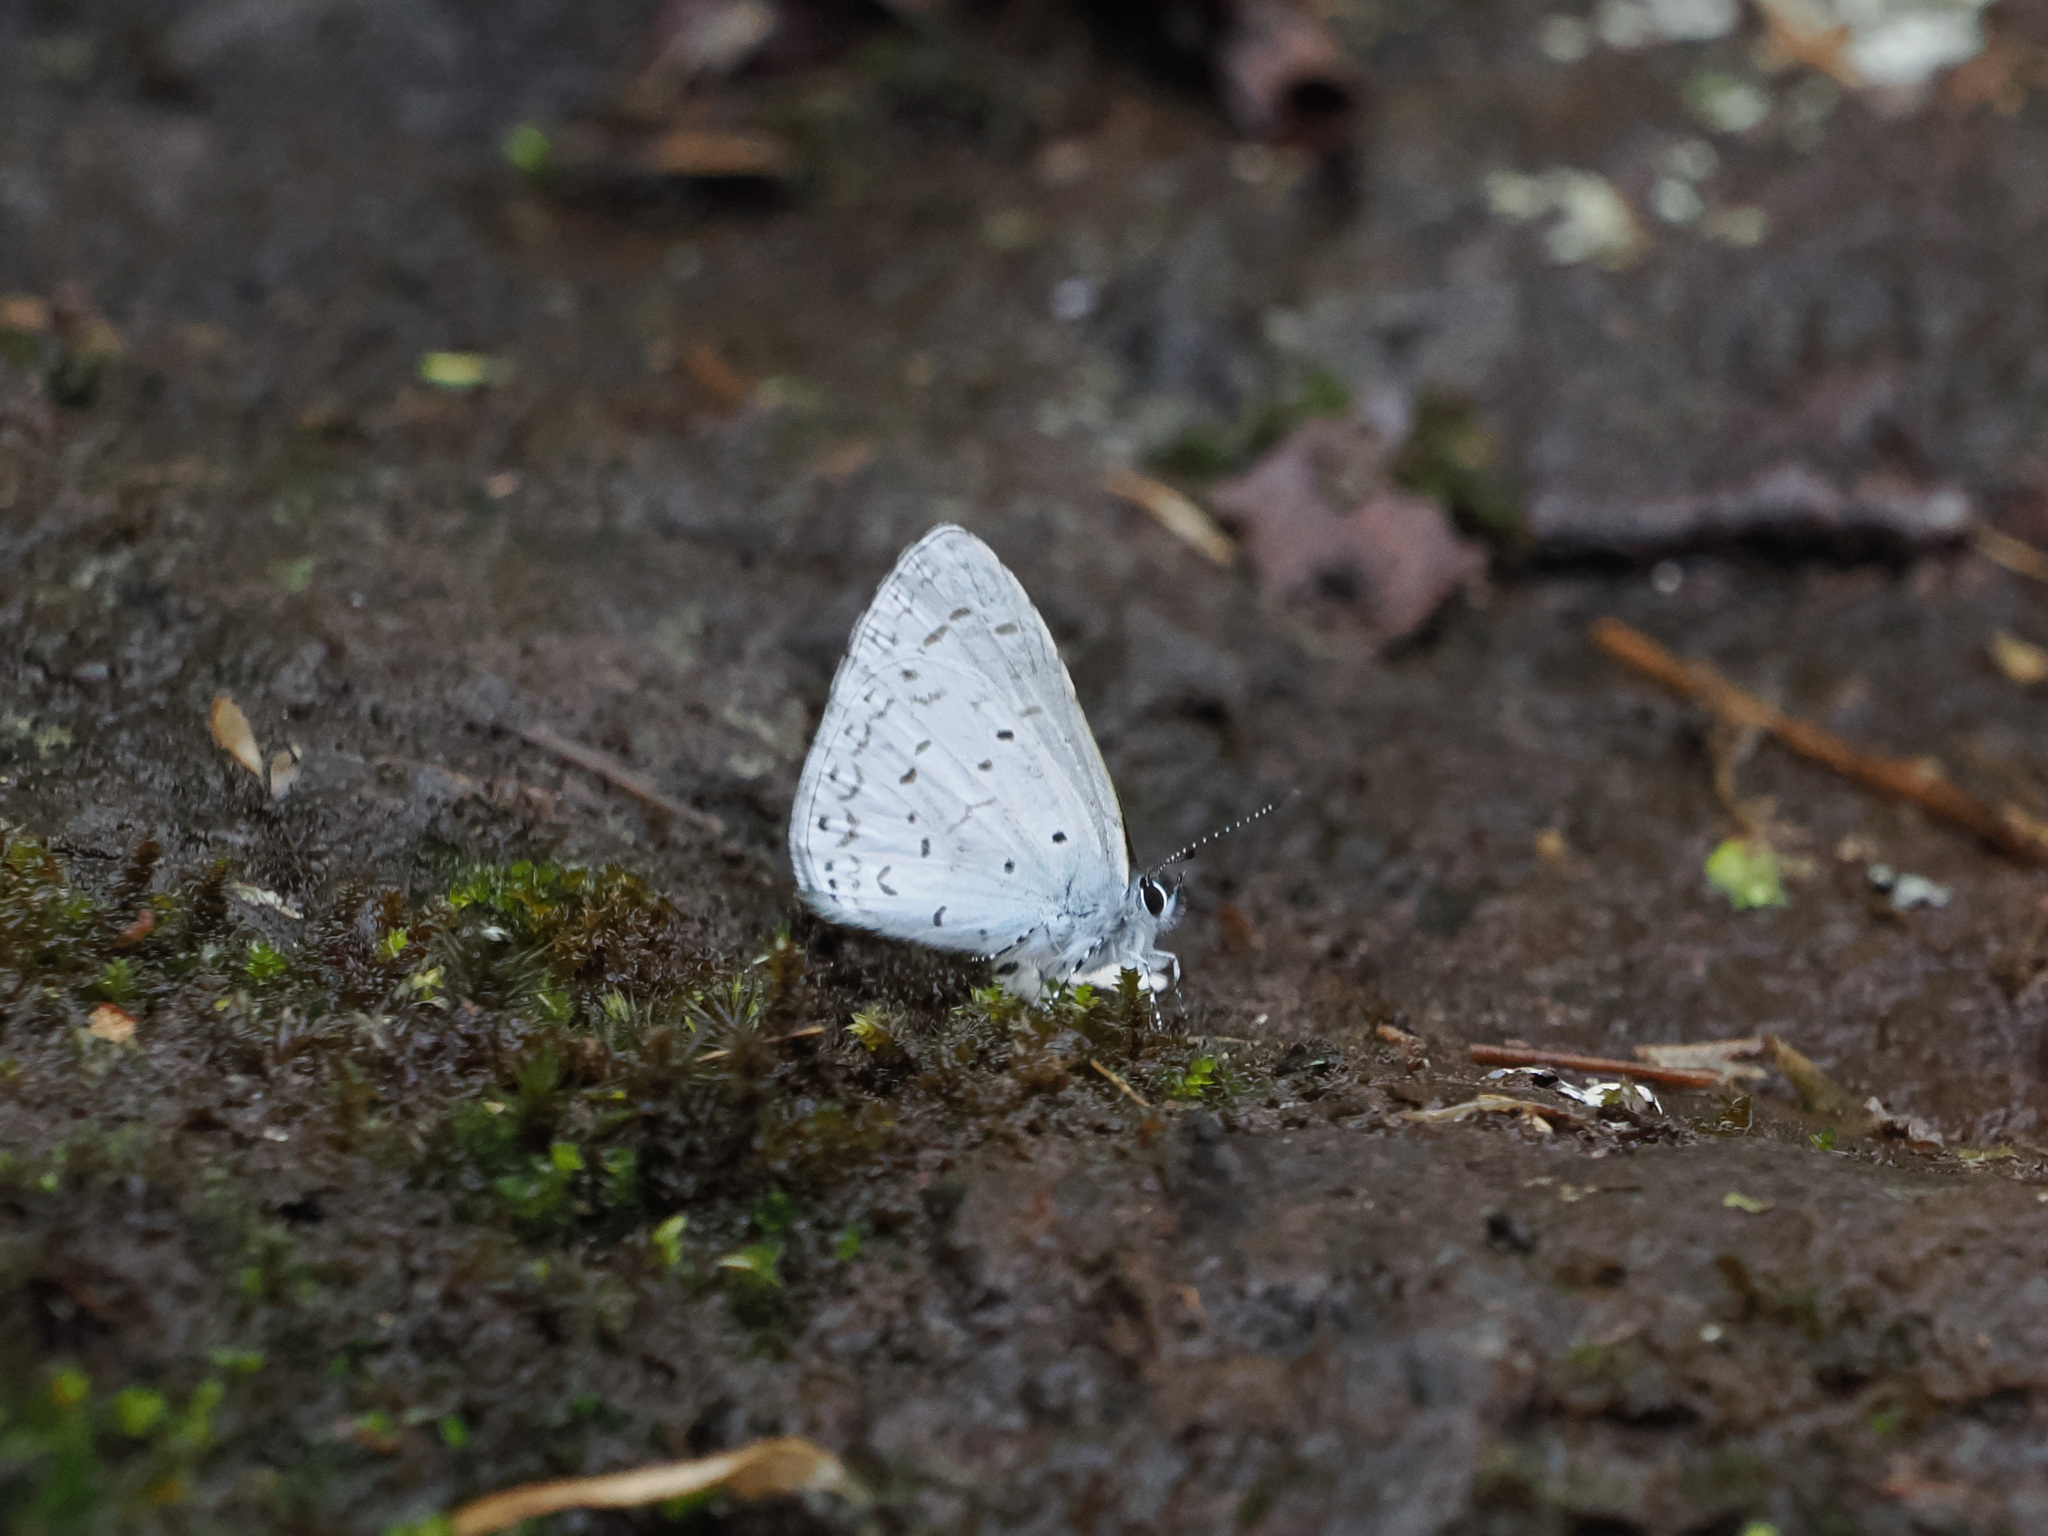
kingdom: Animalia
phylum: Arthropoda
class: Insecta
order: Lepidoptera
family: Lycaenidae
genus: Udara
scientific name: Udara dilectus
